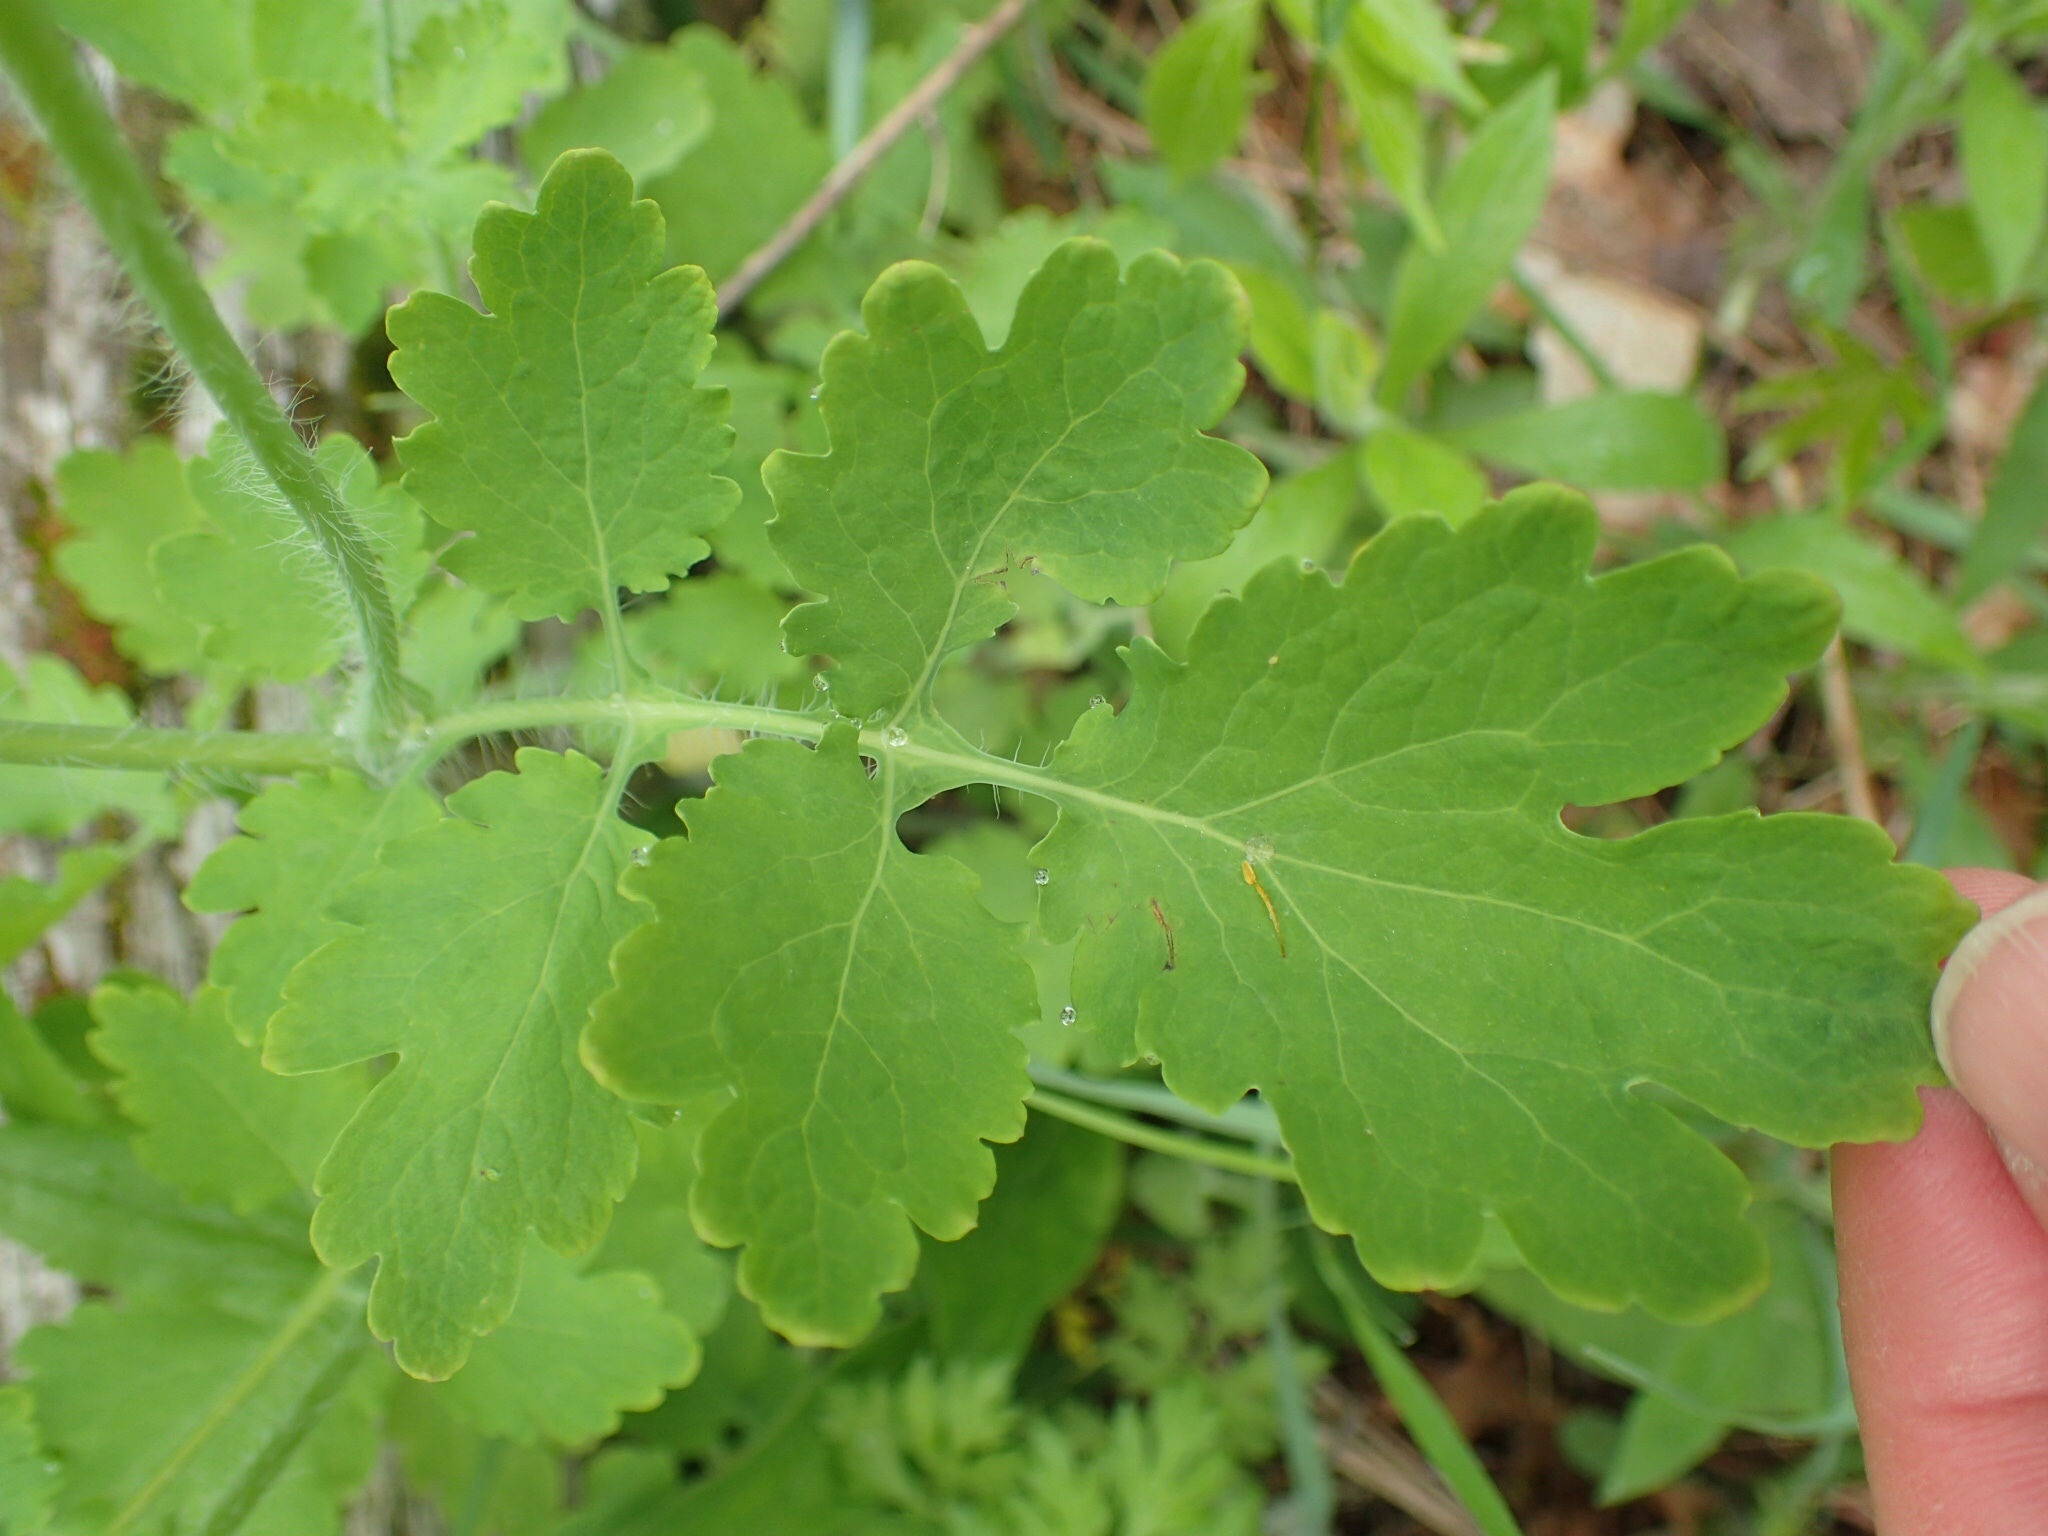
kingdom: Plantae
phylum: Tracheophyta
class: Magnoliopsida
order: Ranunculales
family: Papaveraceae
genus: Chelidonium
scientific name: Chelidonium majus
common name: Greater celandine
